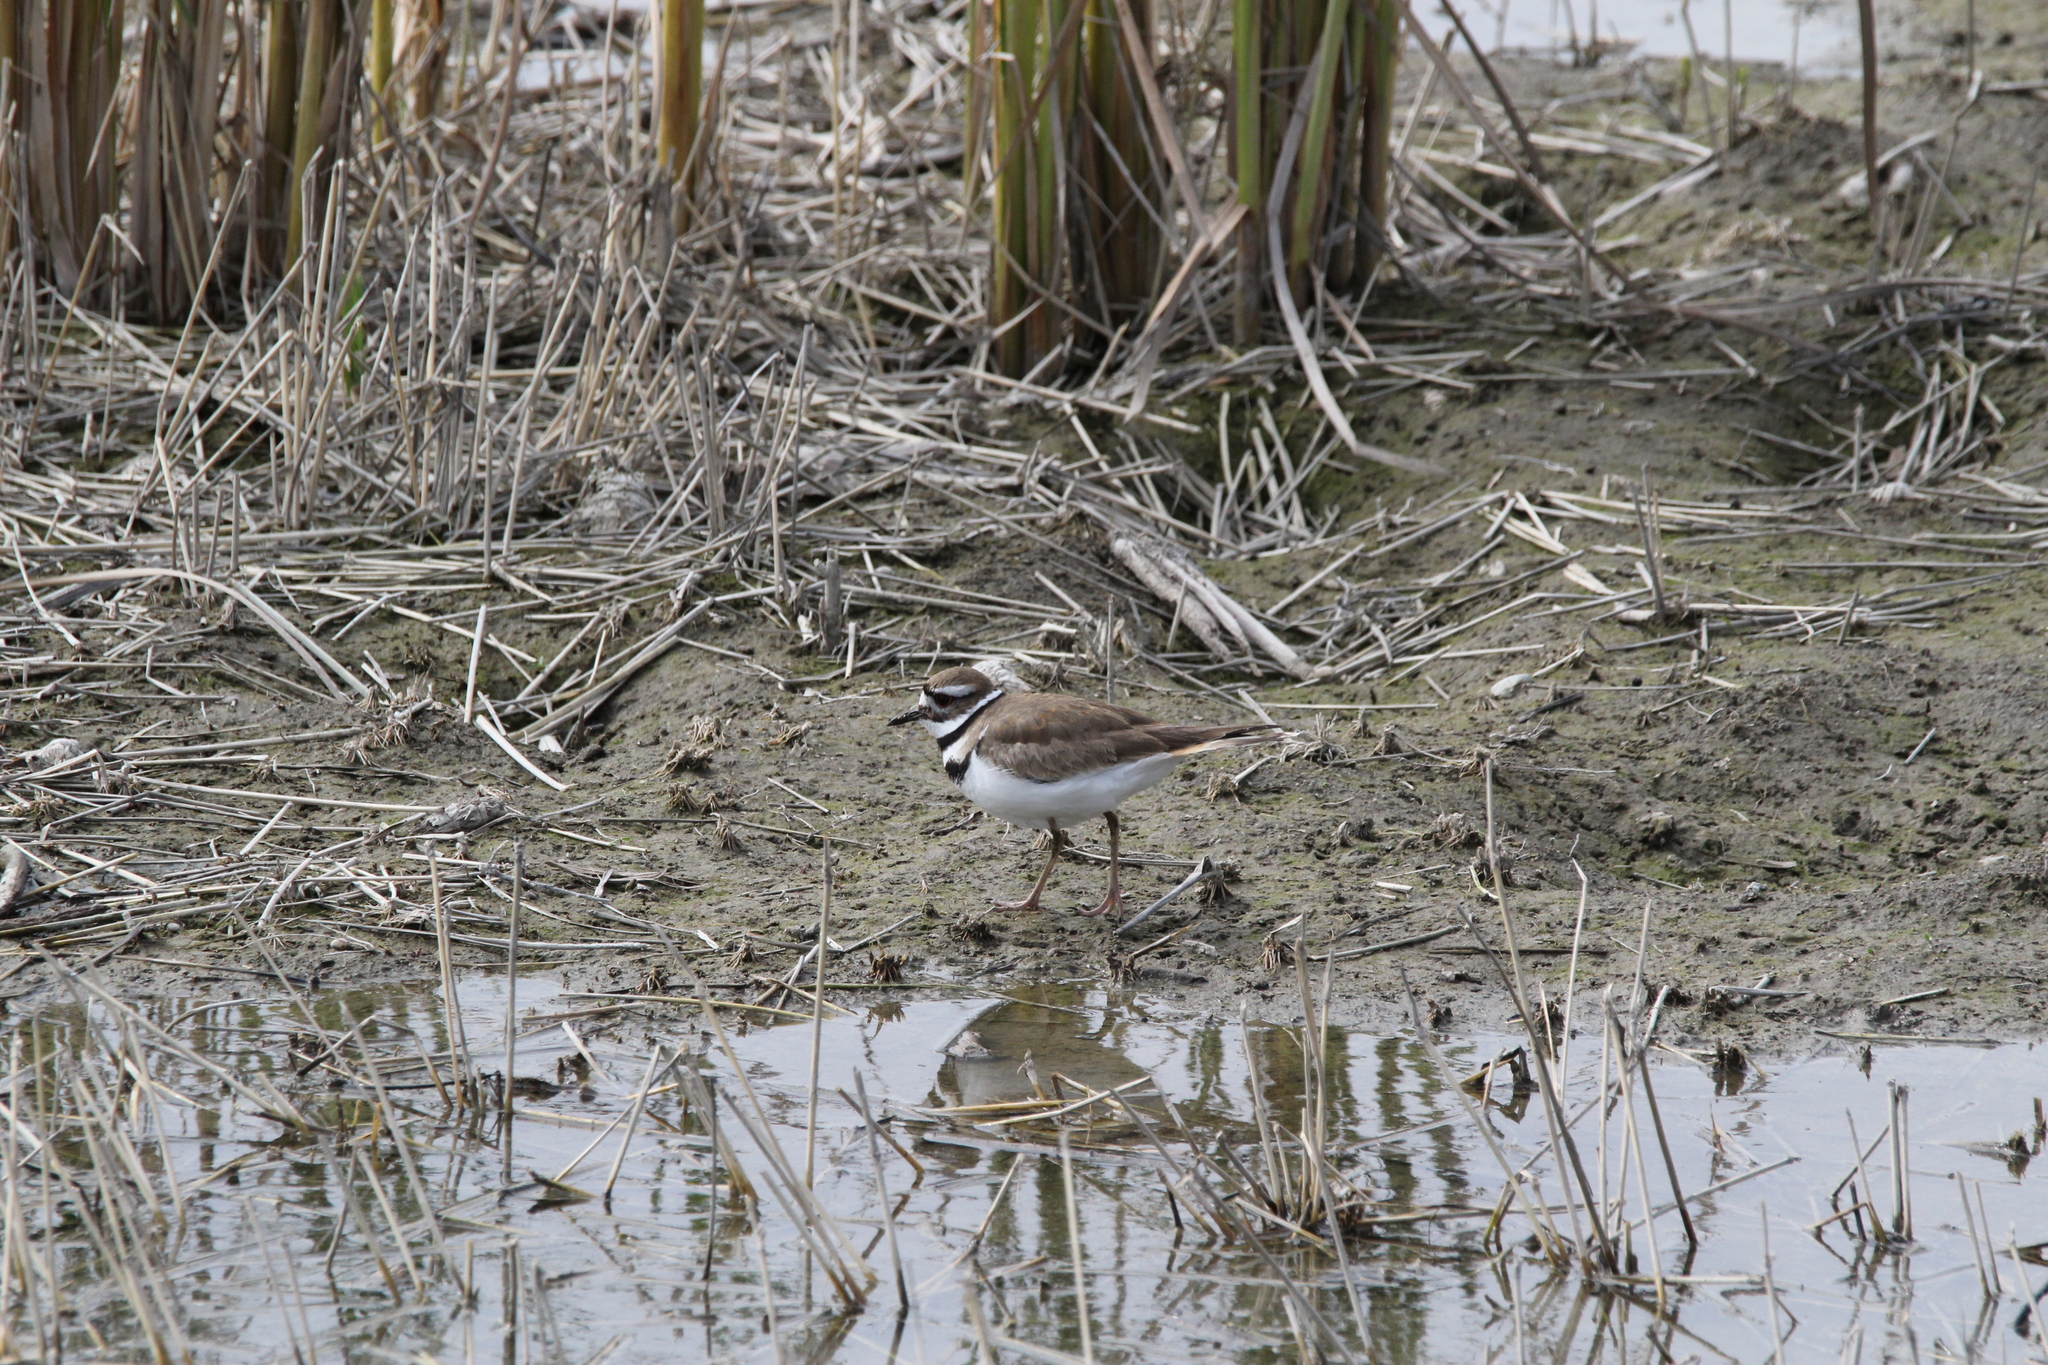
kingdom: Animalia
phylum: Chordata
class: Aves
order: Charadriiformes
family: Charadriidae
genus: Charadrius
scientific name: Charadrius vociferus
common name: Killdeer
